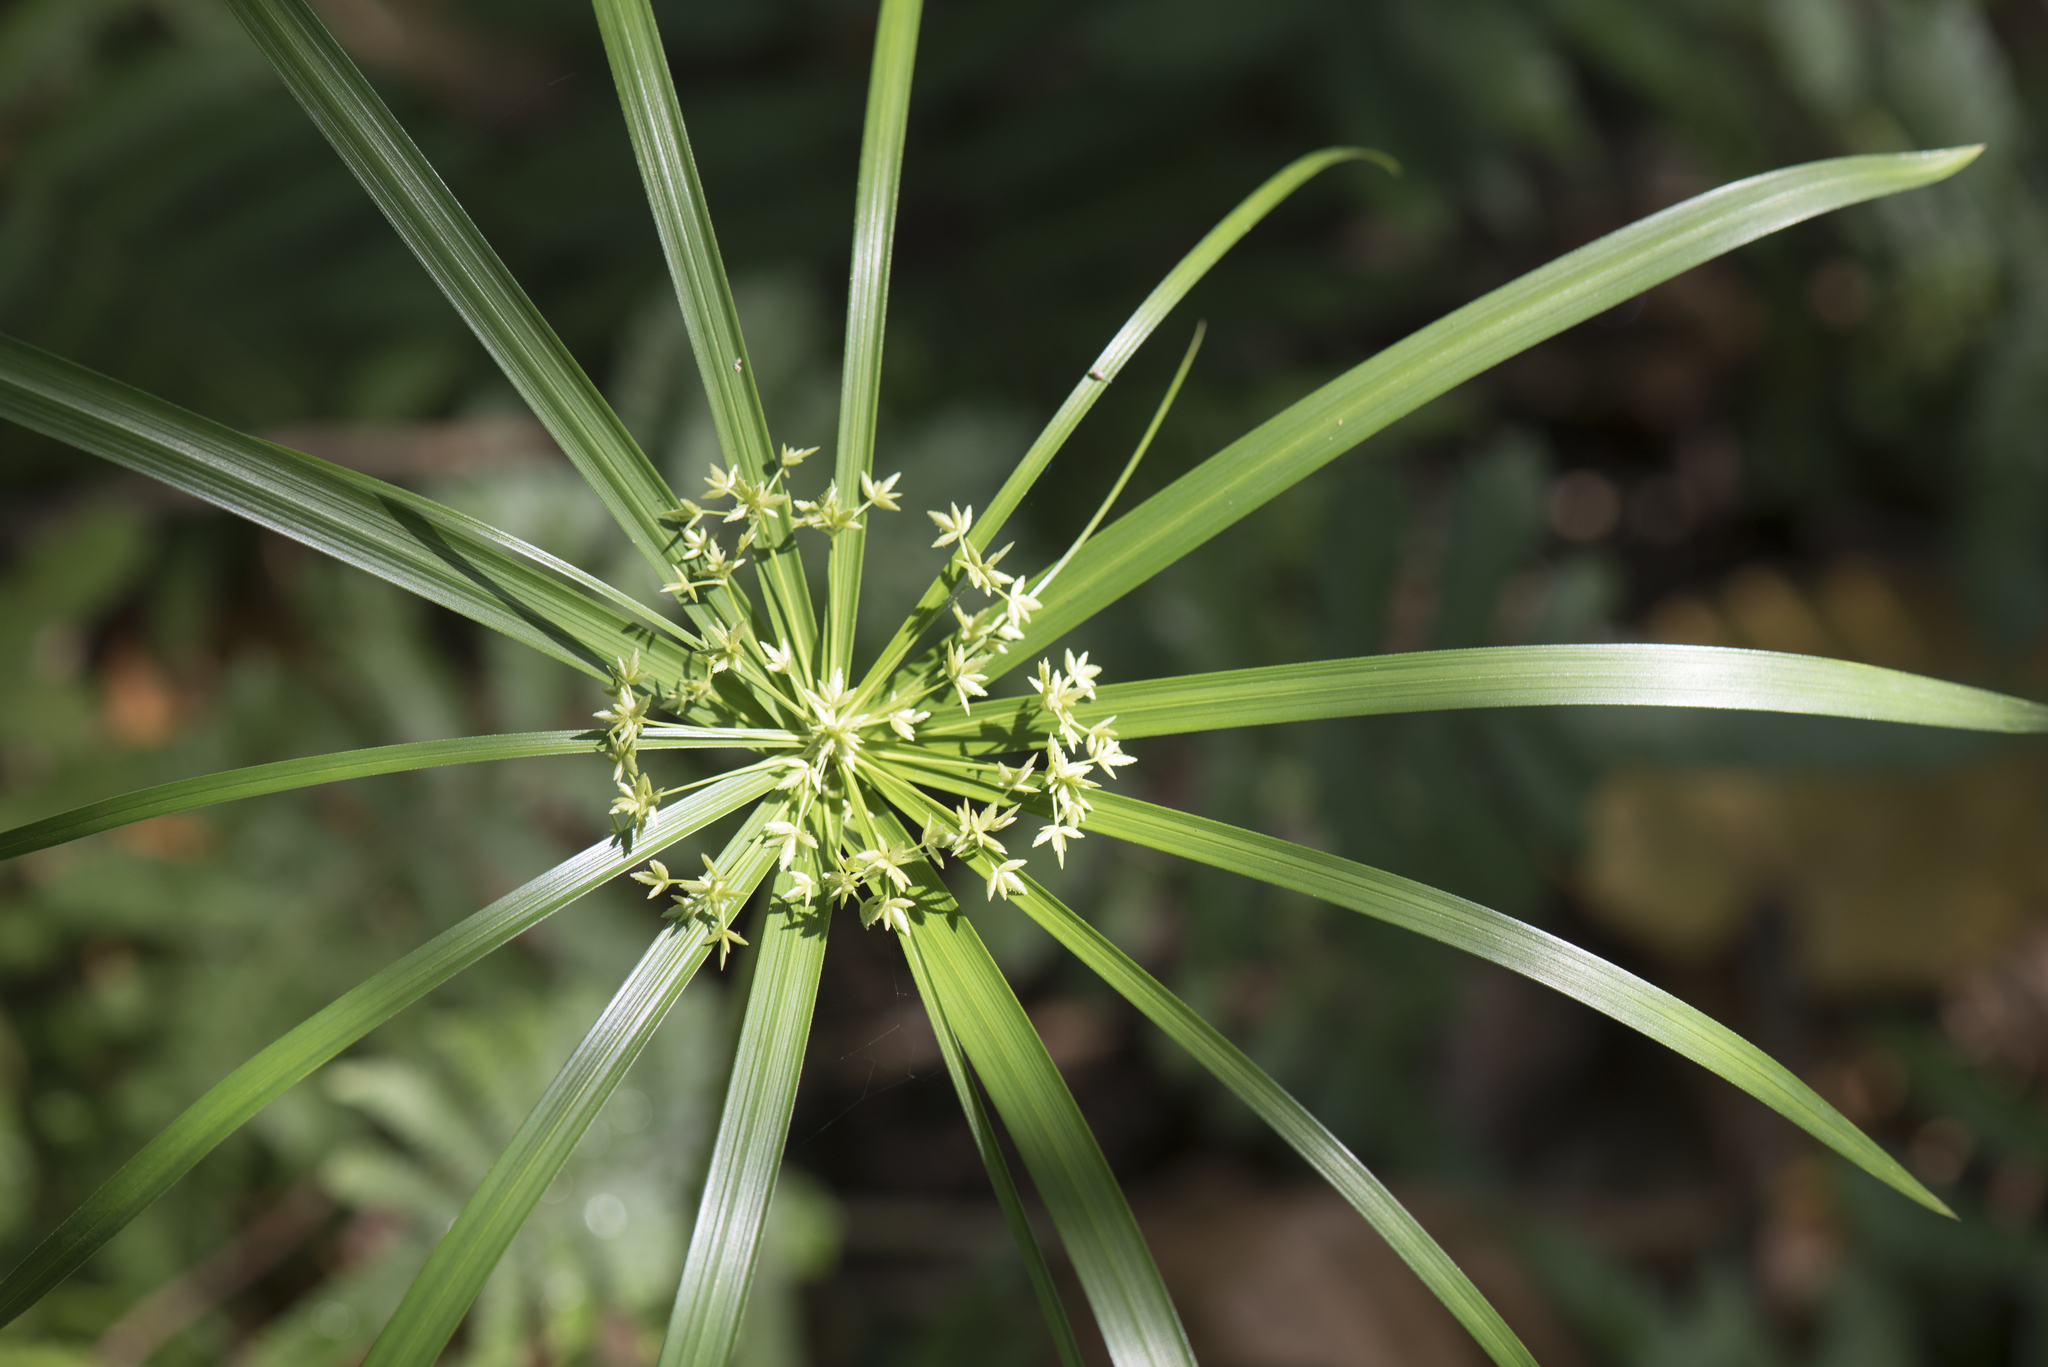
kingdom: Plantae
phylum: Tracheophyta
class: Liliopsida
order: Poales
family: Cyperaceae
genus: Cyperus
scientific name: Cyperus alternifolius
